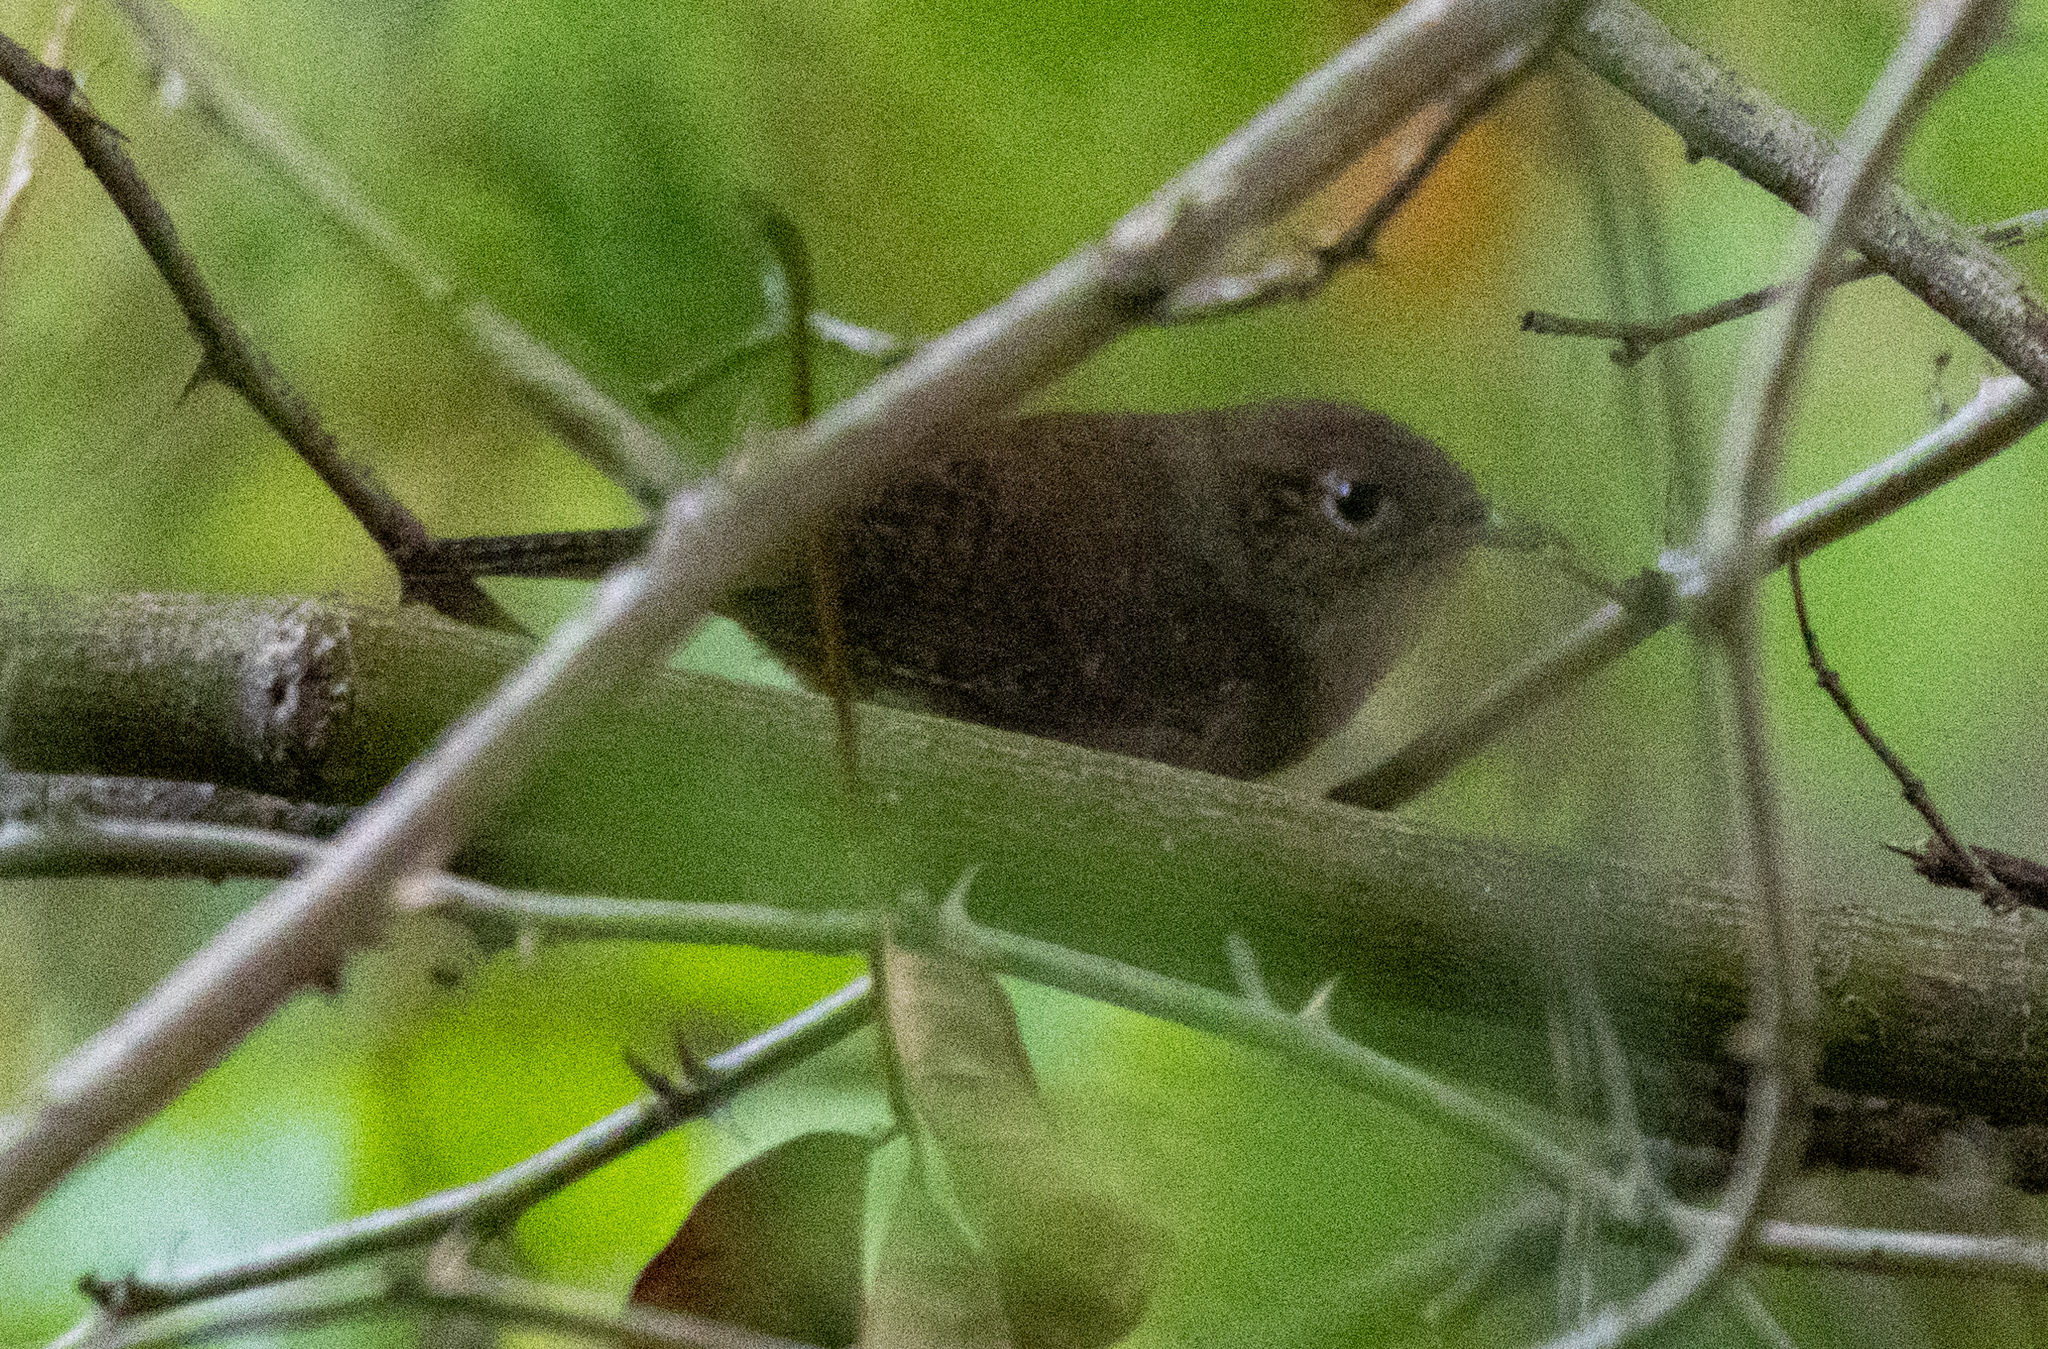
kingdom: Animalia
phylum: Chordata
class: Aves
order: Passeriformes
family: Troglodytidae
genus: Troglodytes
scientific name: Troglodytes aedon
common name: House wren
